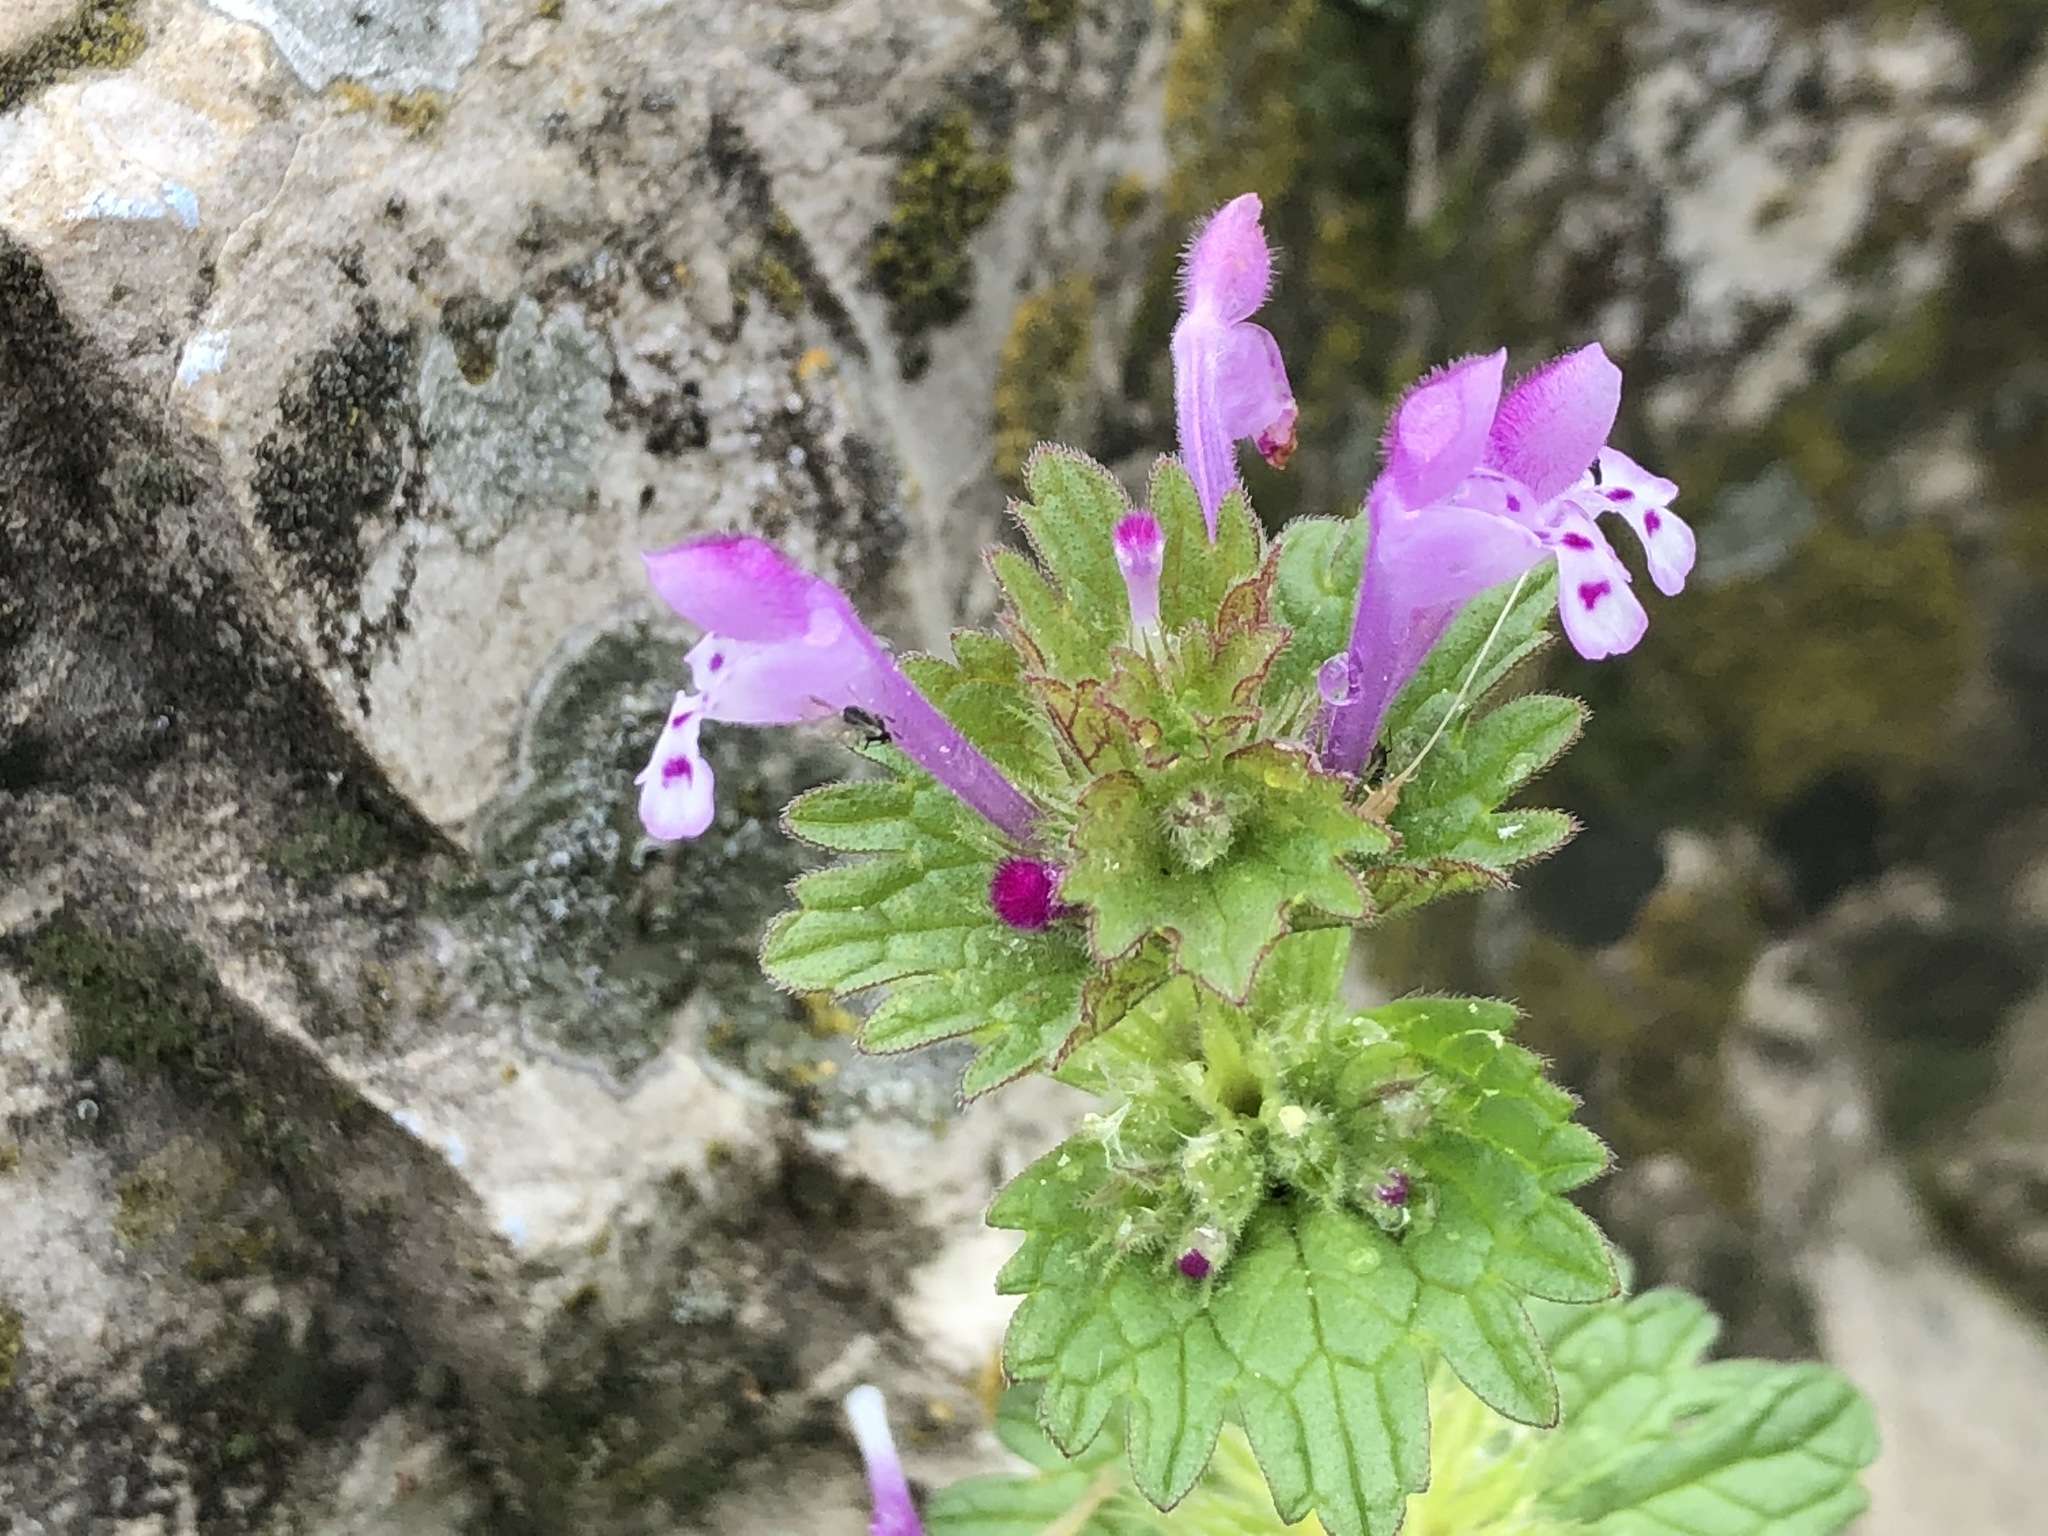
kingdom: Plantae
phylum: Tracheophyta
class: Magnoliopsida
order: Lamiales
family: Lamiaceae
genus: Lamium
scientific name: Lamium amplexicaule
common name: Henbit dead-nettle
